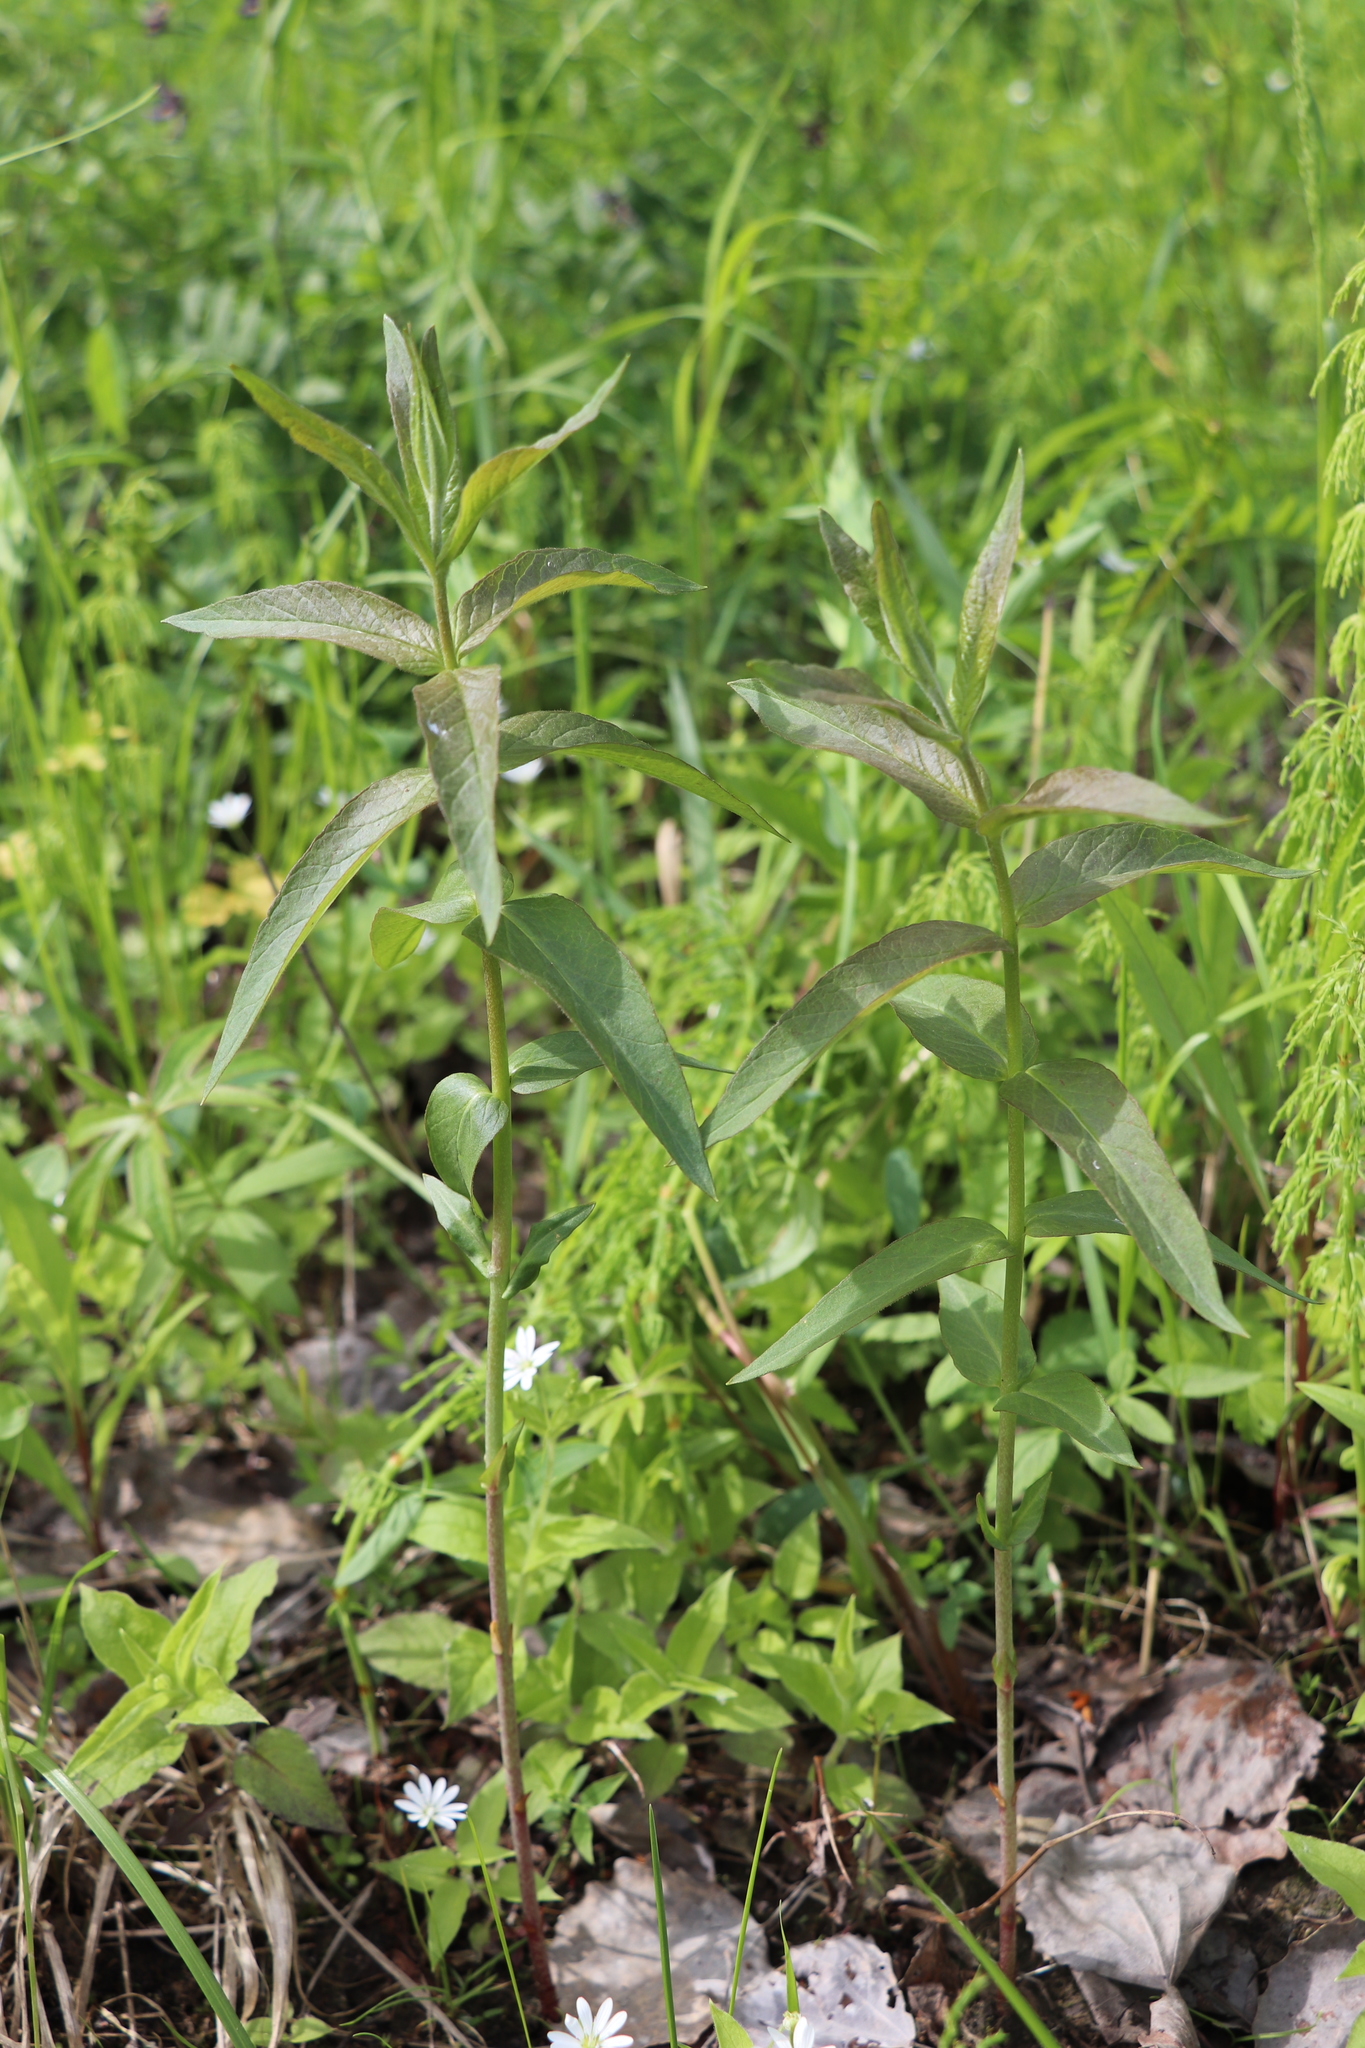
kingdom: Plantae
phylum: Tracheophyta
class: Magnoliopsida
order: Ericales
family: Primulaceae
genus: Lysimachia
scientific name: Lysimachia vulgaris
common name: Yellow loosestrife
